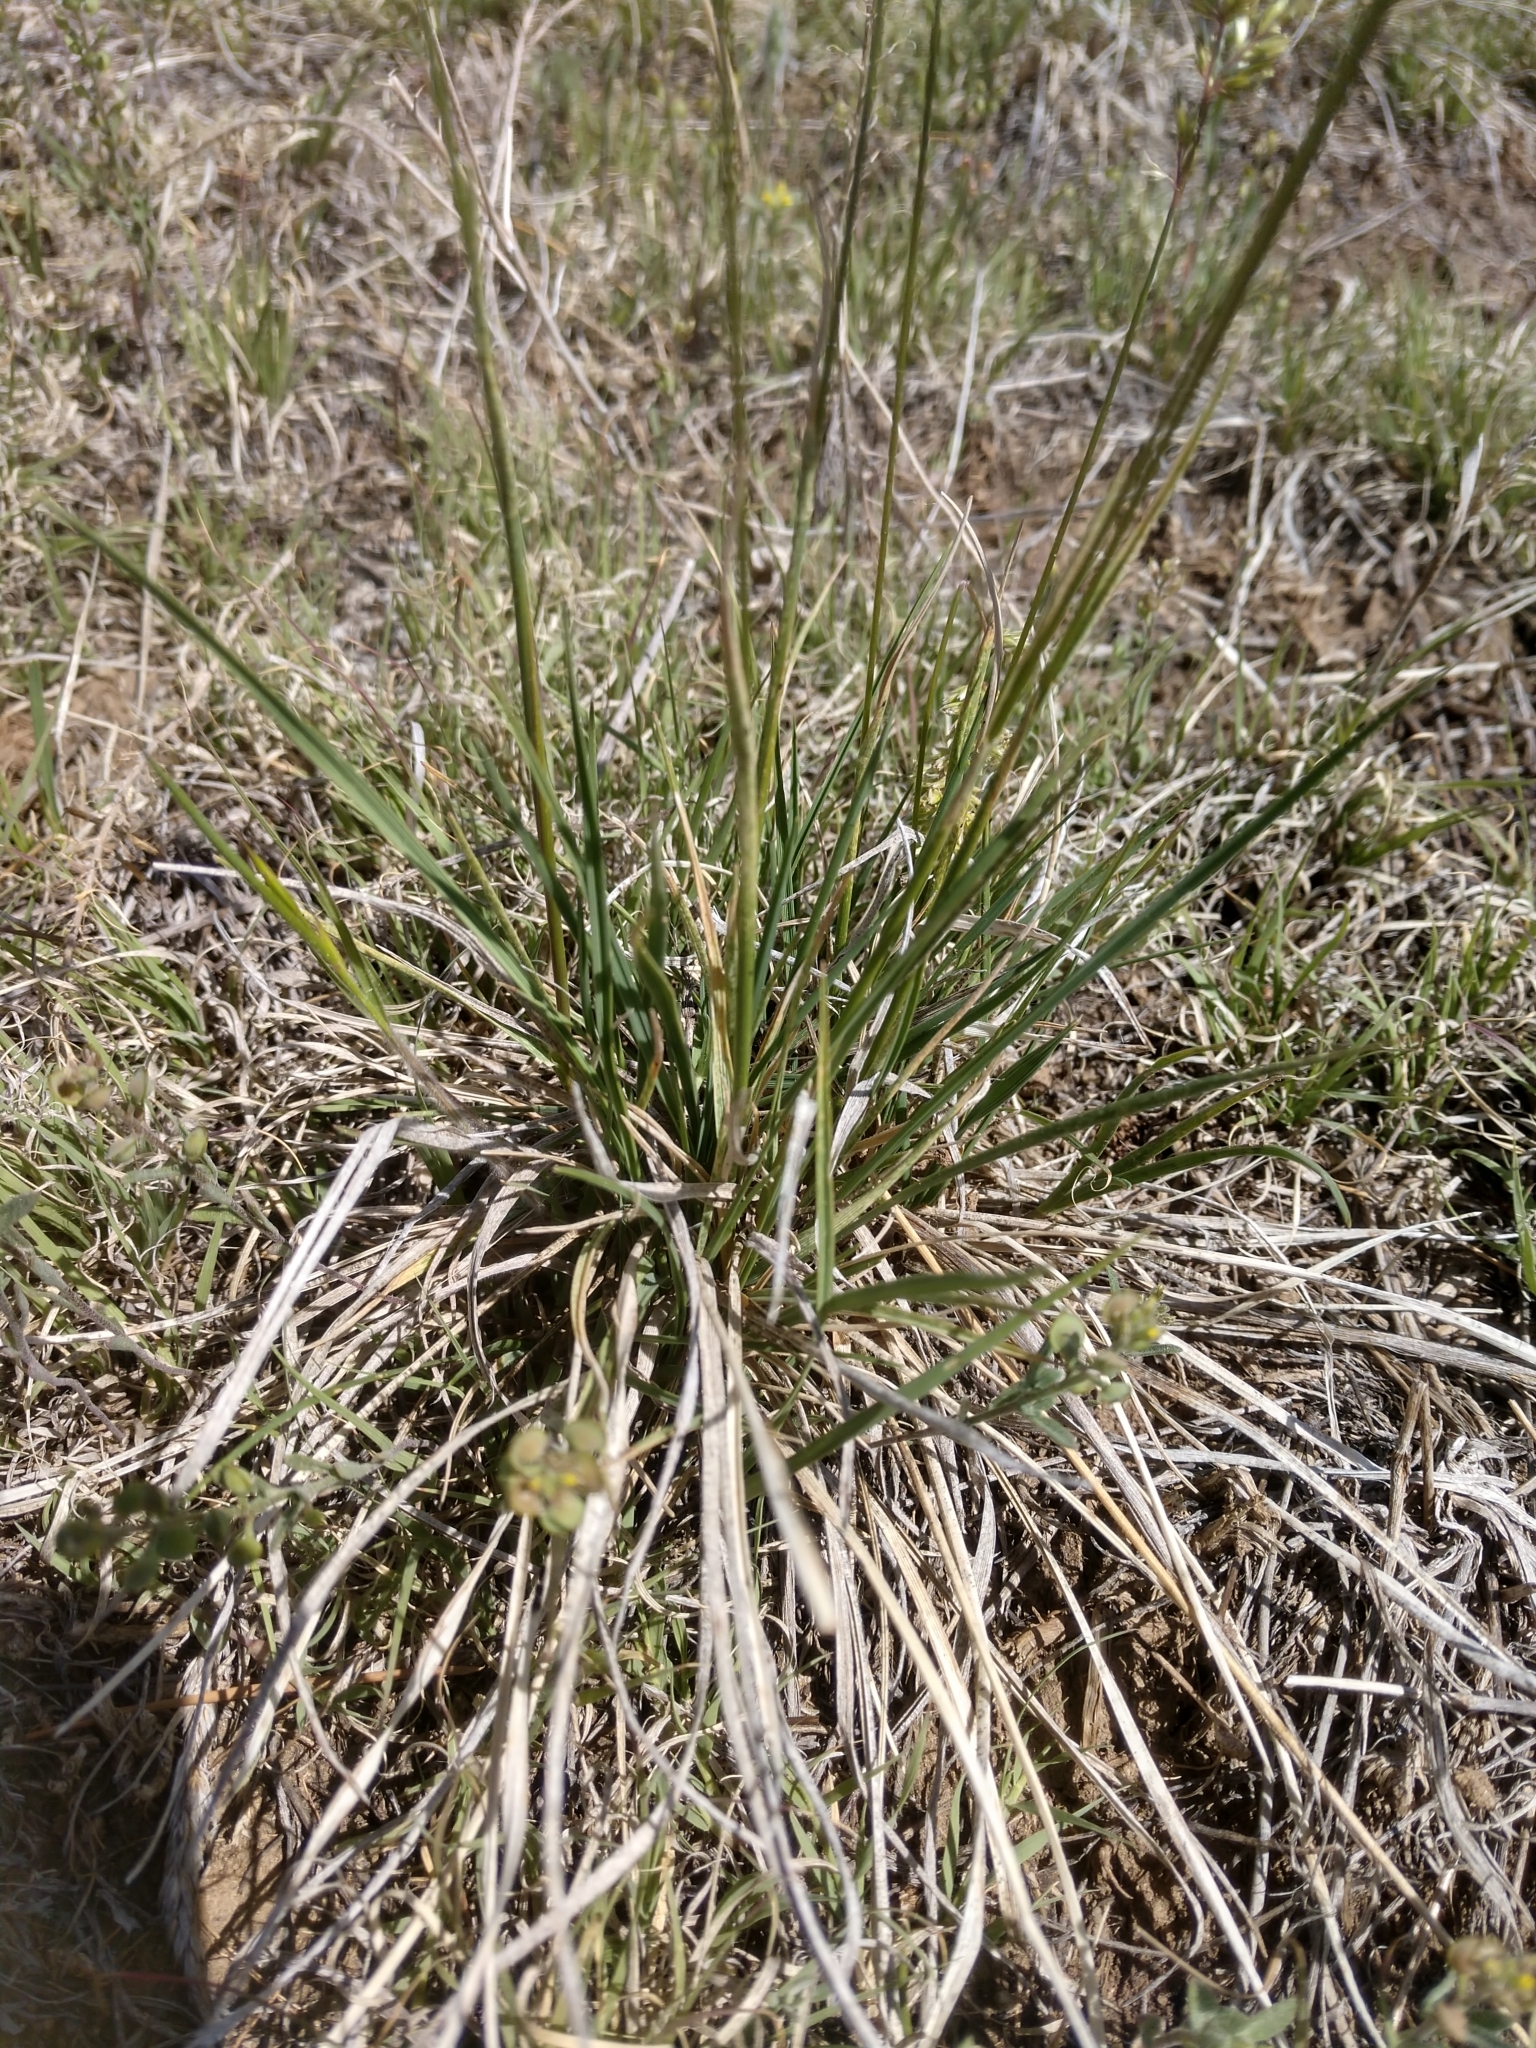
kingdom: Plantae
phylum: Tracheophyta
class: Liliopsida
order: Poales
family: Poaceae
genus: Koeleria
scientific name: Koeleria macrantha
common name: Crested hair-grass
